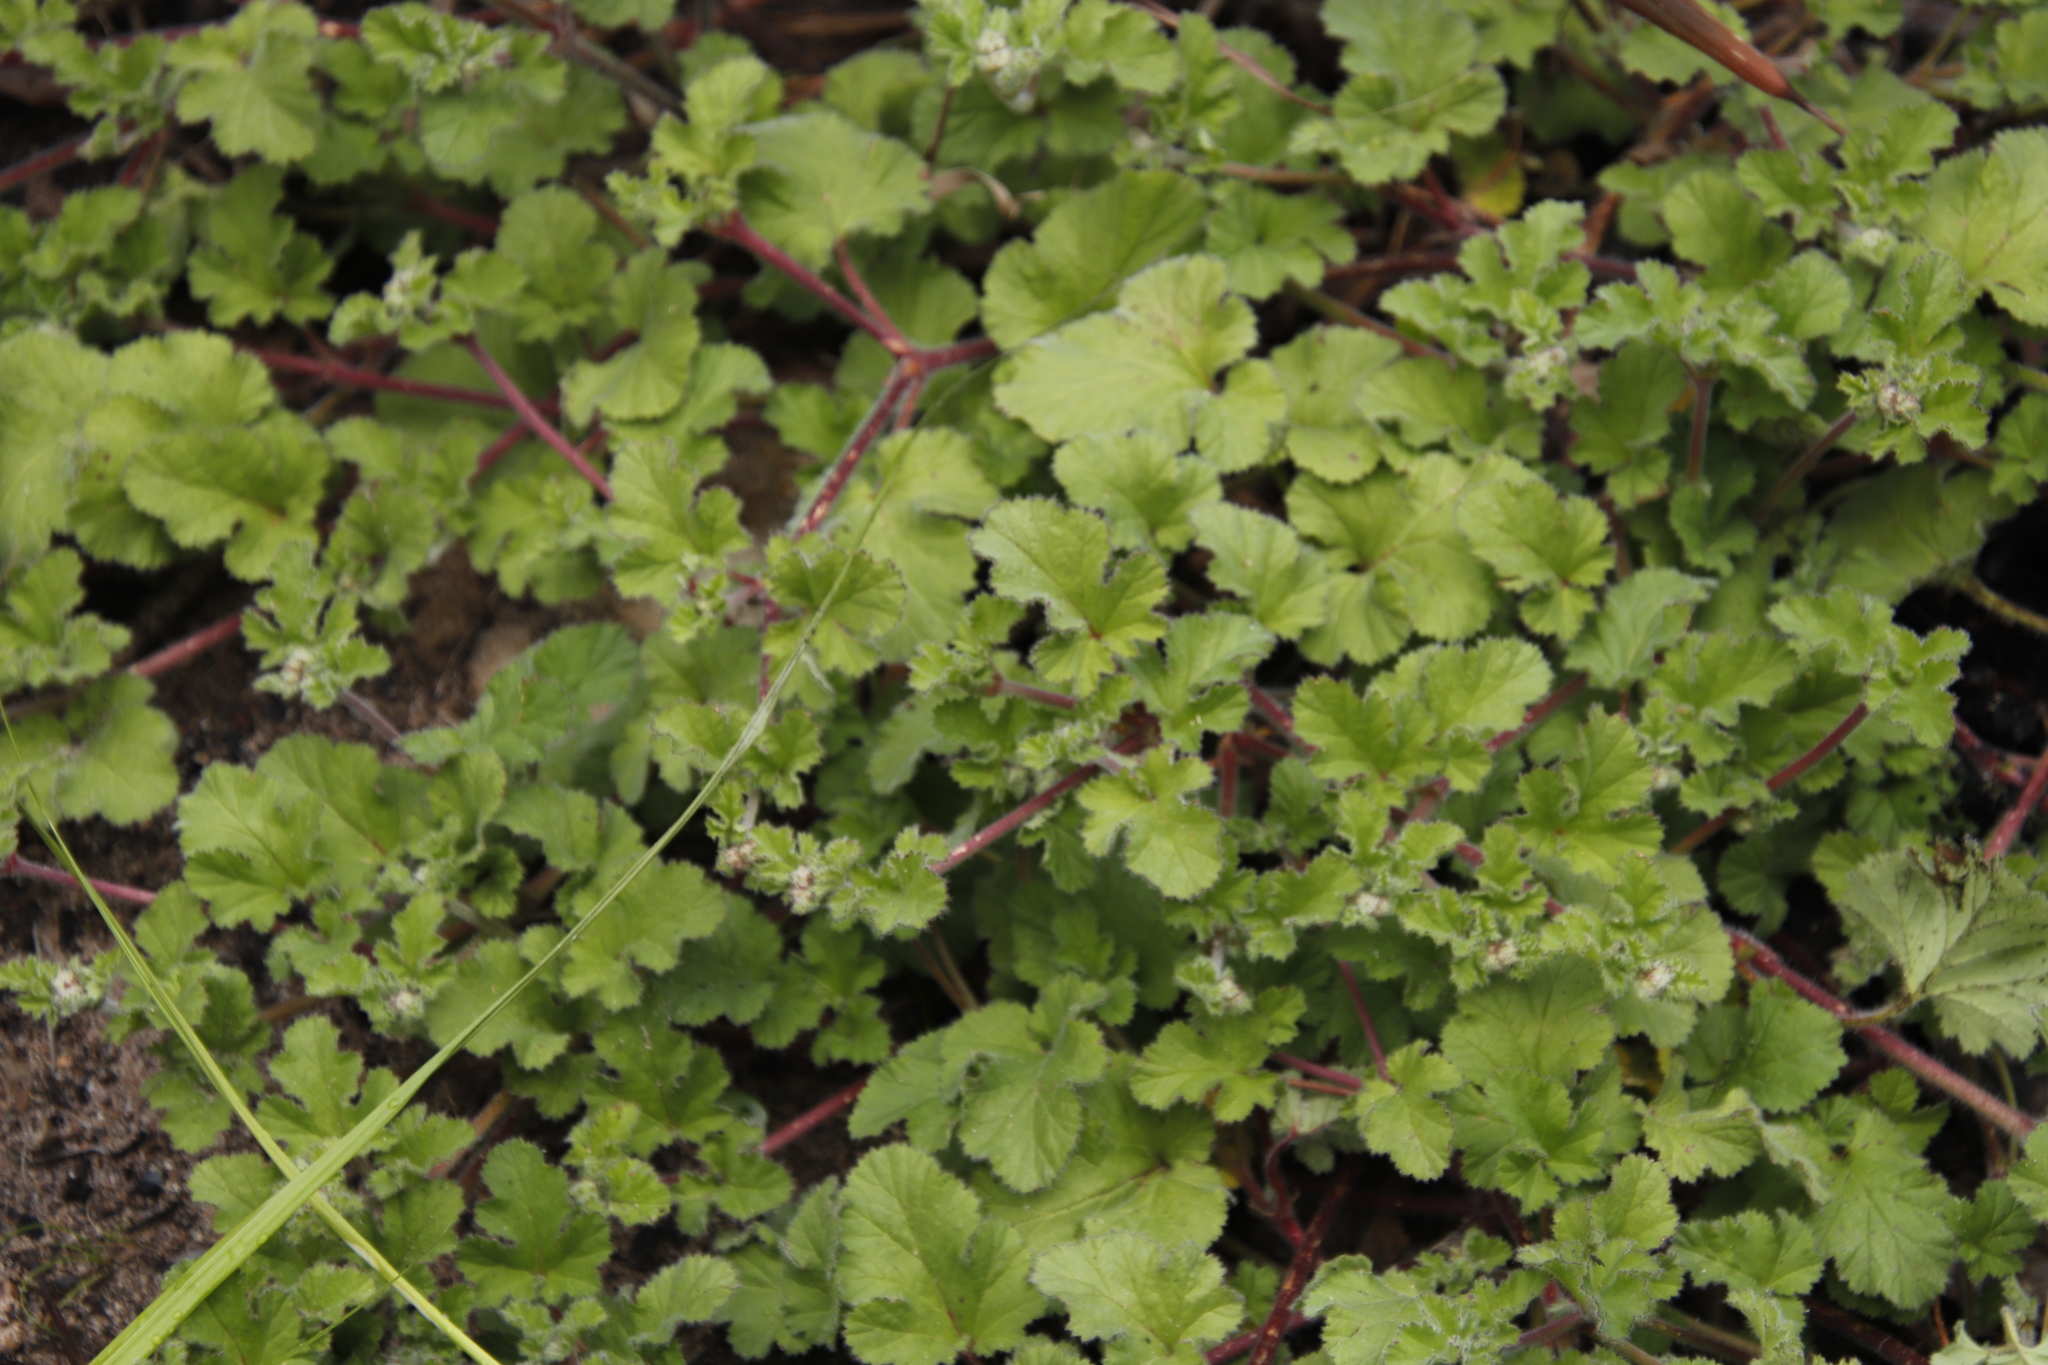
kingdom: Plantae
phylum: Tracheophyta
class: Magnoliopsida
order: Geraniales
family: Geraniaceae
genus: Pelargonium
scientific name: Pelargonium althaeoides
